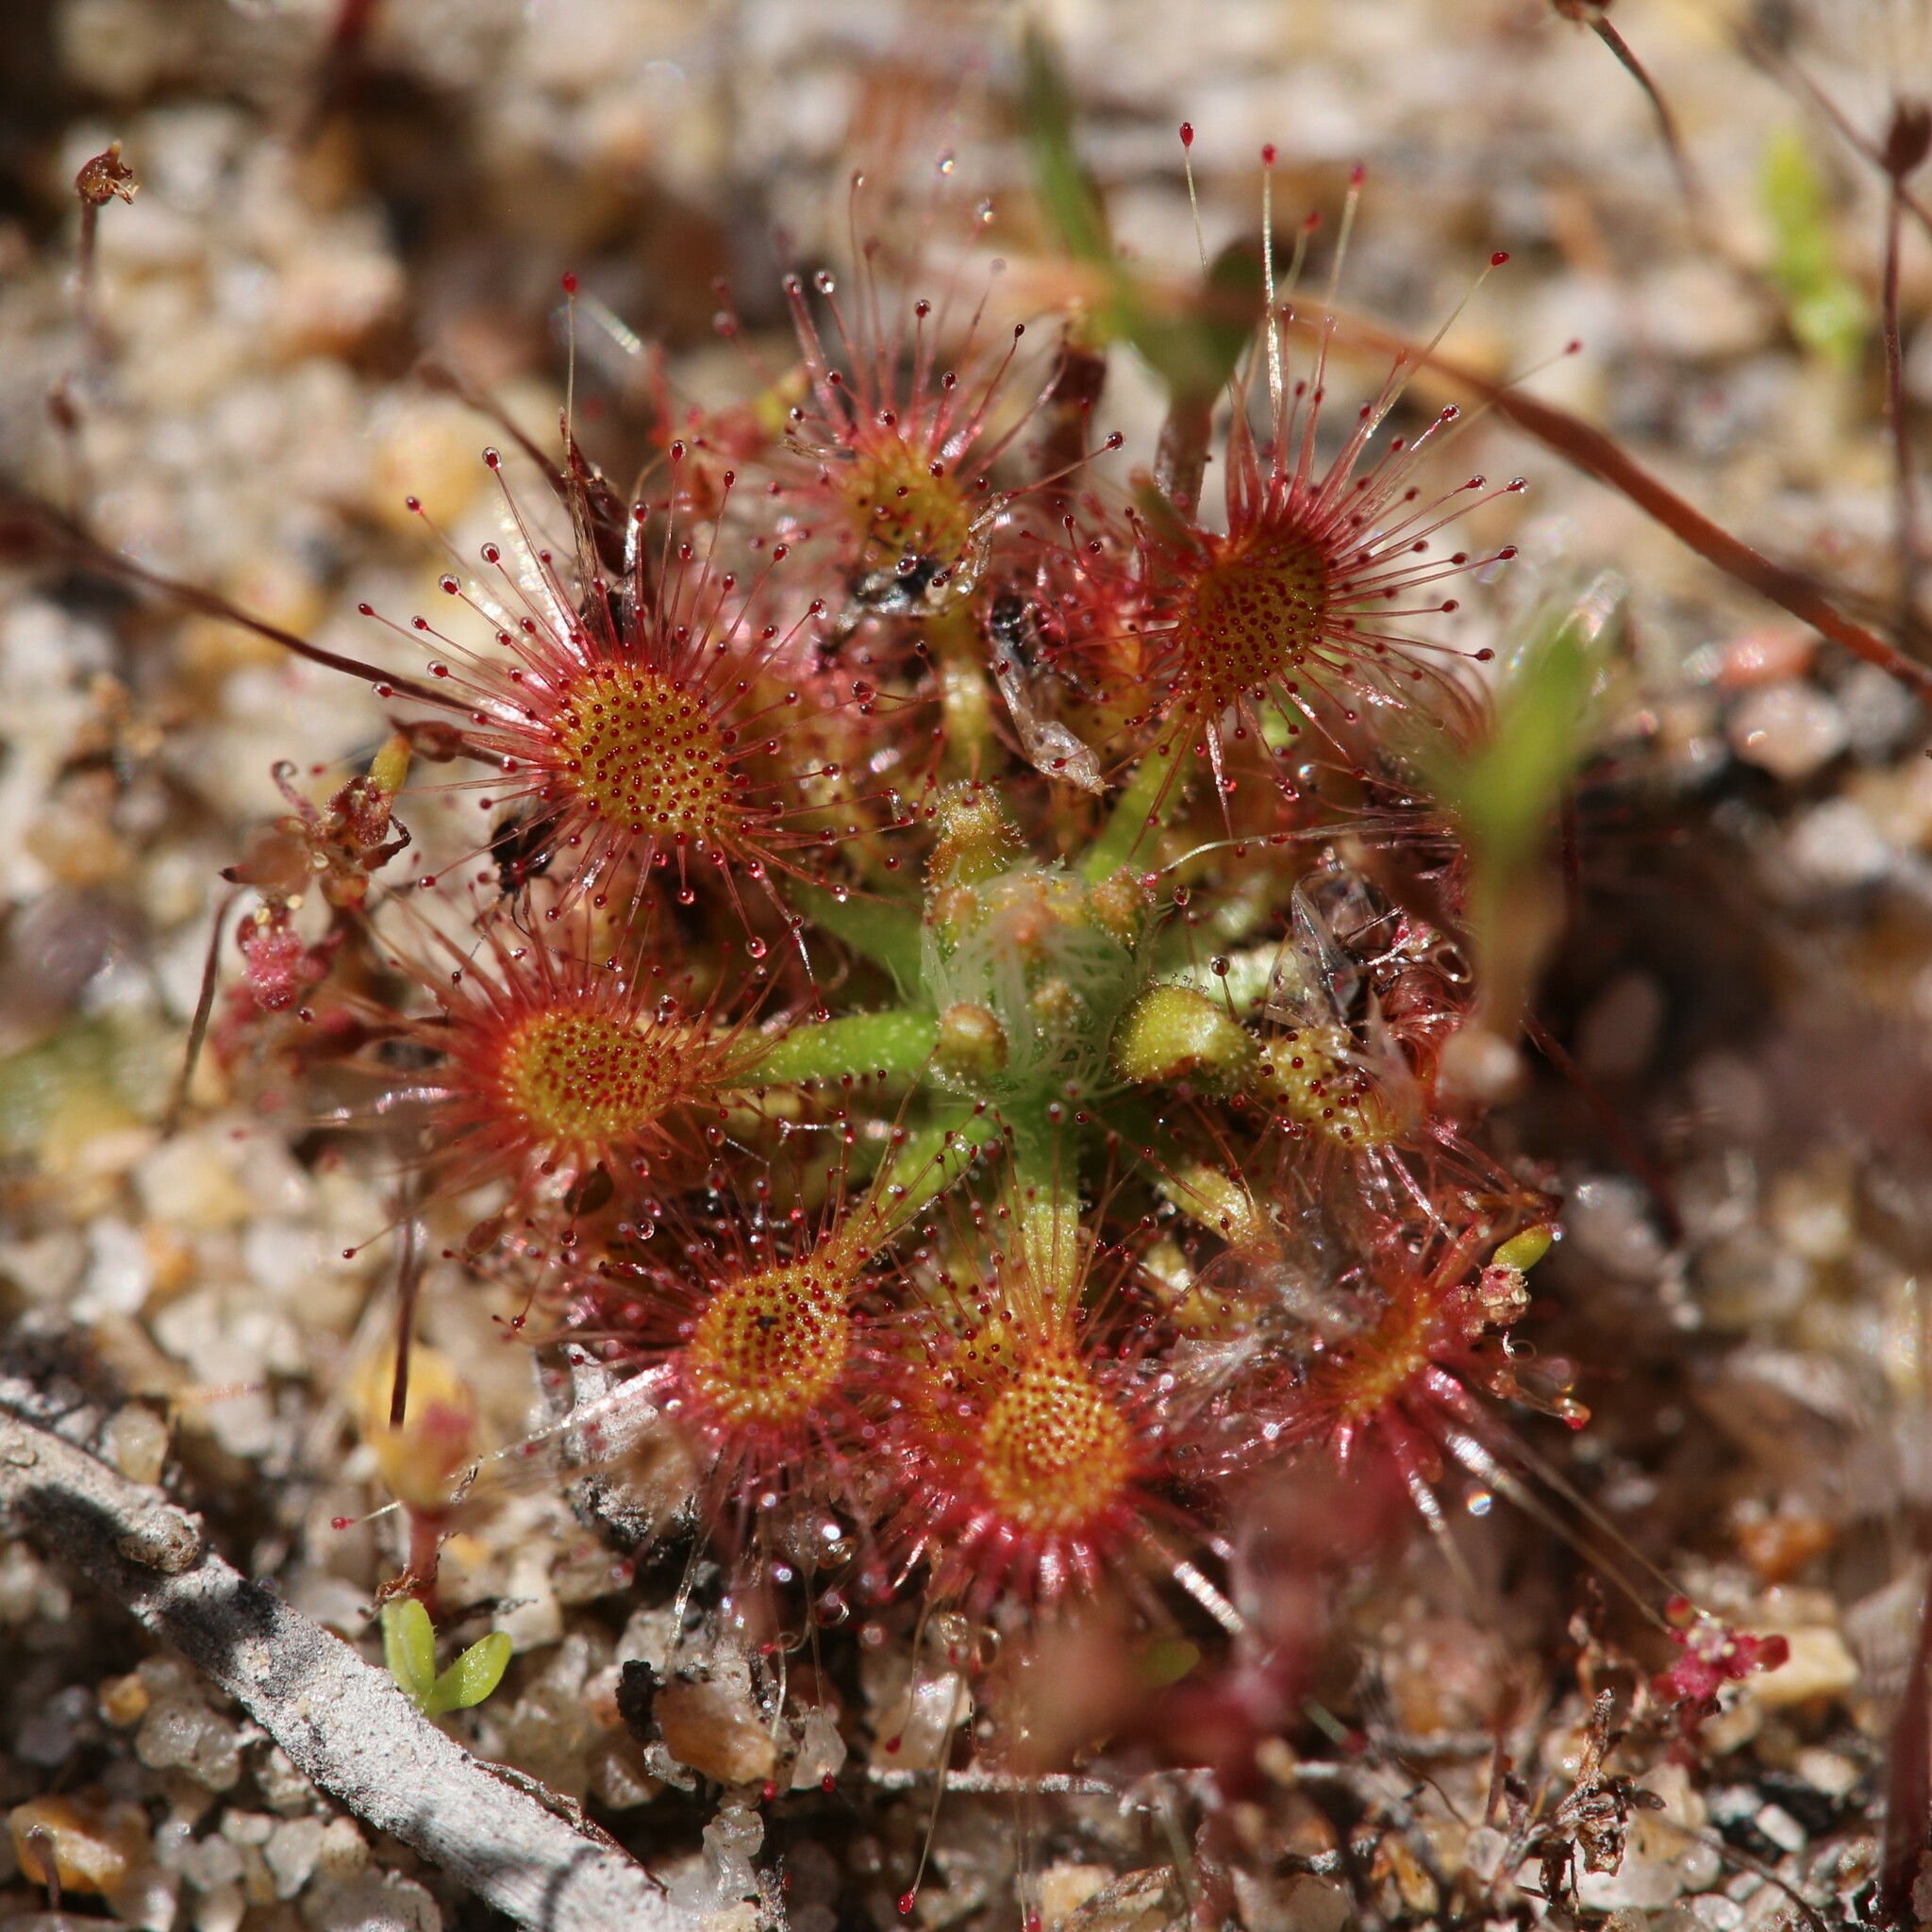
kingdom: Plantae
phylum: Tracheophyta
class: Magnoliopsida
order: Caryophyllales
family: Droseraceae
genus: Drosera
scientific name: Drosera nitidula
